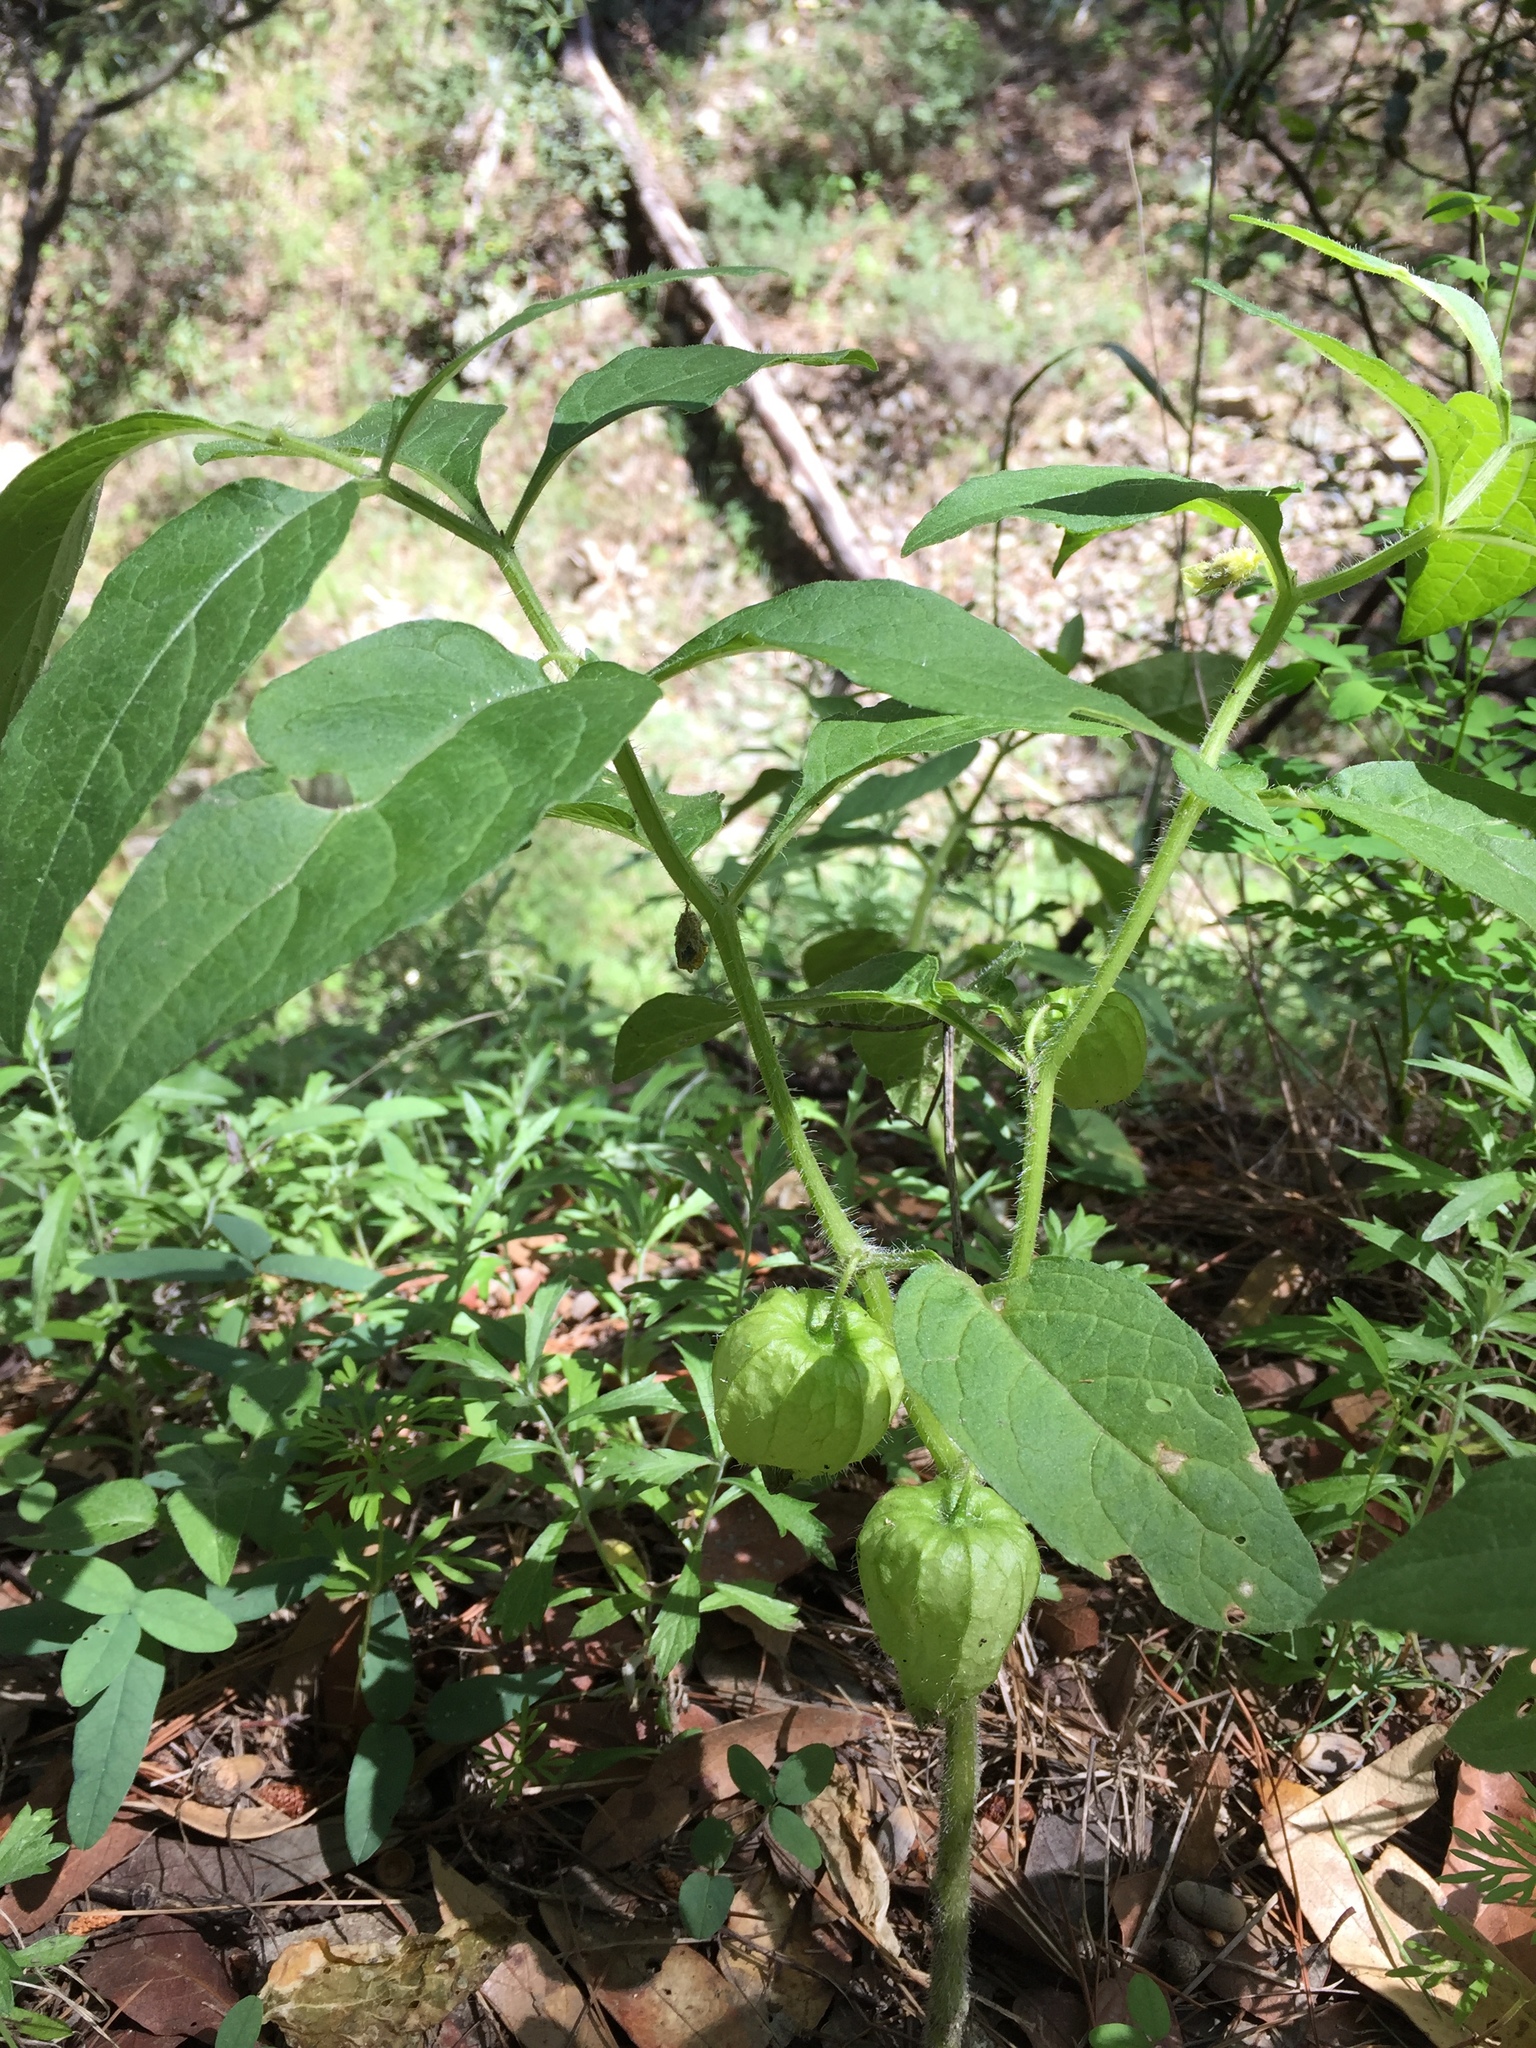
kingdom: Plantae
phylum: Tracheophyta
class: Magnoliopsida
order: Solanales
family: Solanaceae
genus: Physalis
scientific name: Physalis caudella
